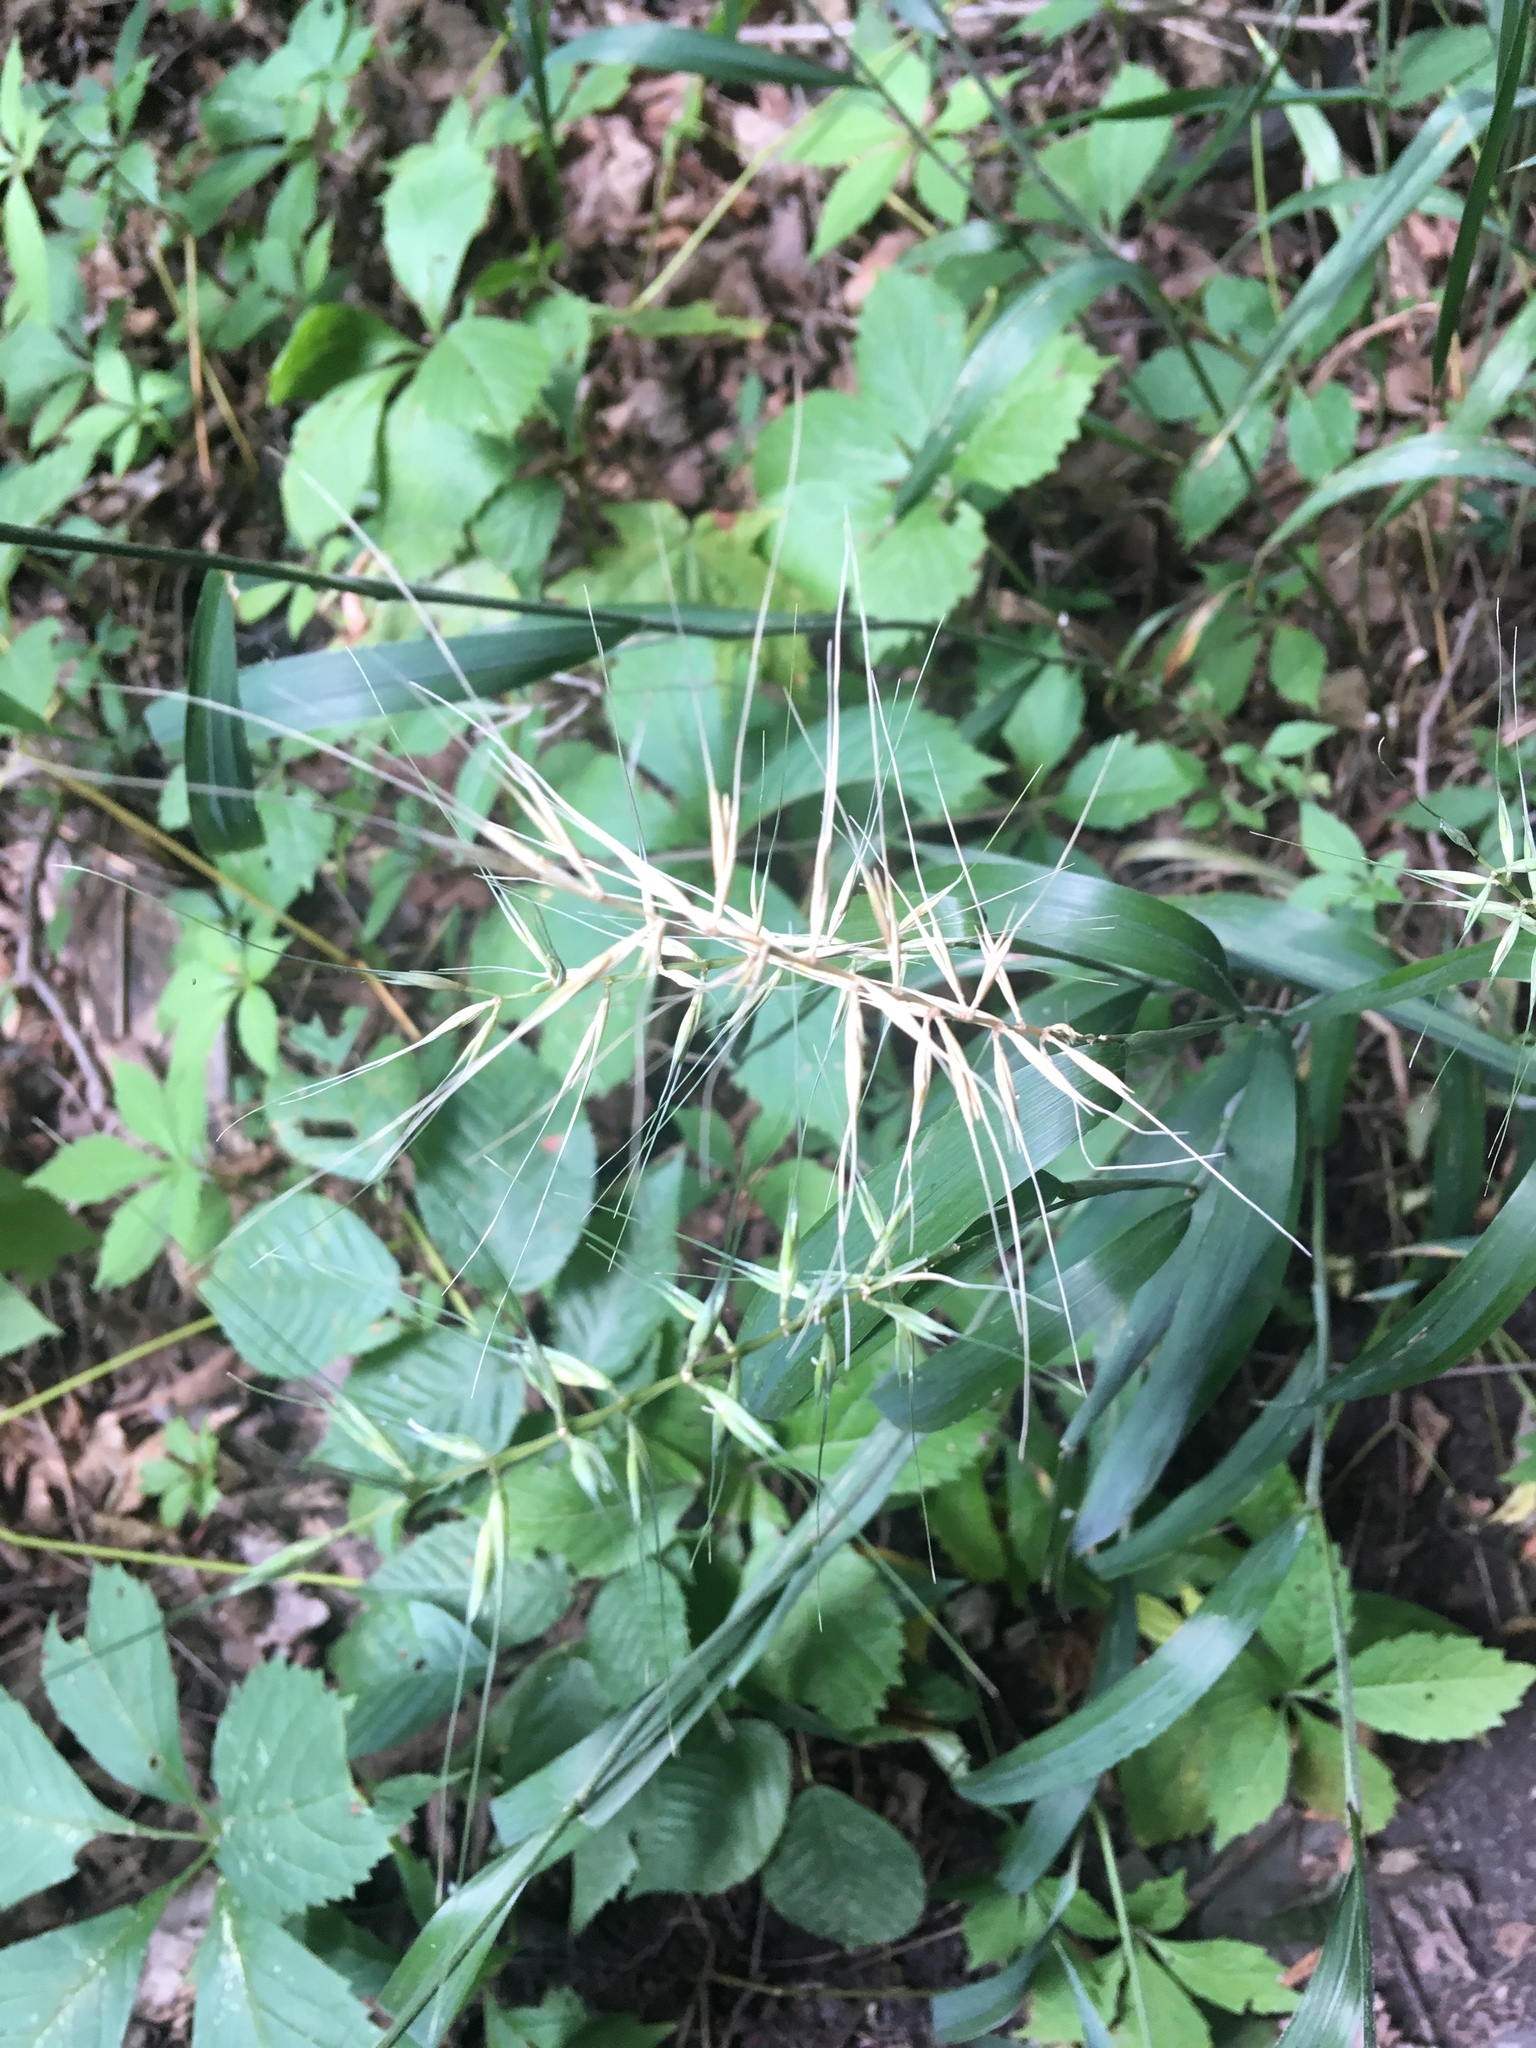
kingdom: Plantae
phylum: Tracheophyta
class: Liliopsida
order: Poales
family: Poaceae
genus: Elymus
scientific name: Elymus hystrix
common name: Bottlebrush grass
